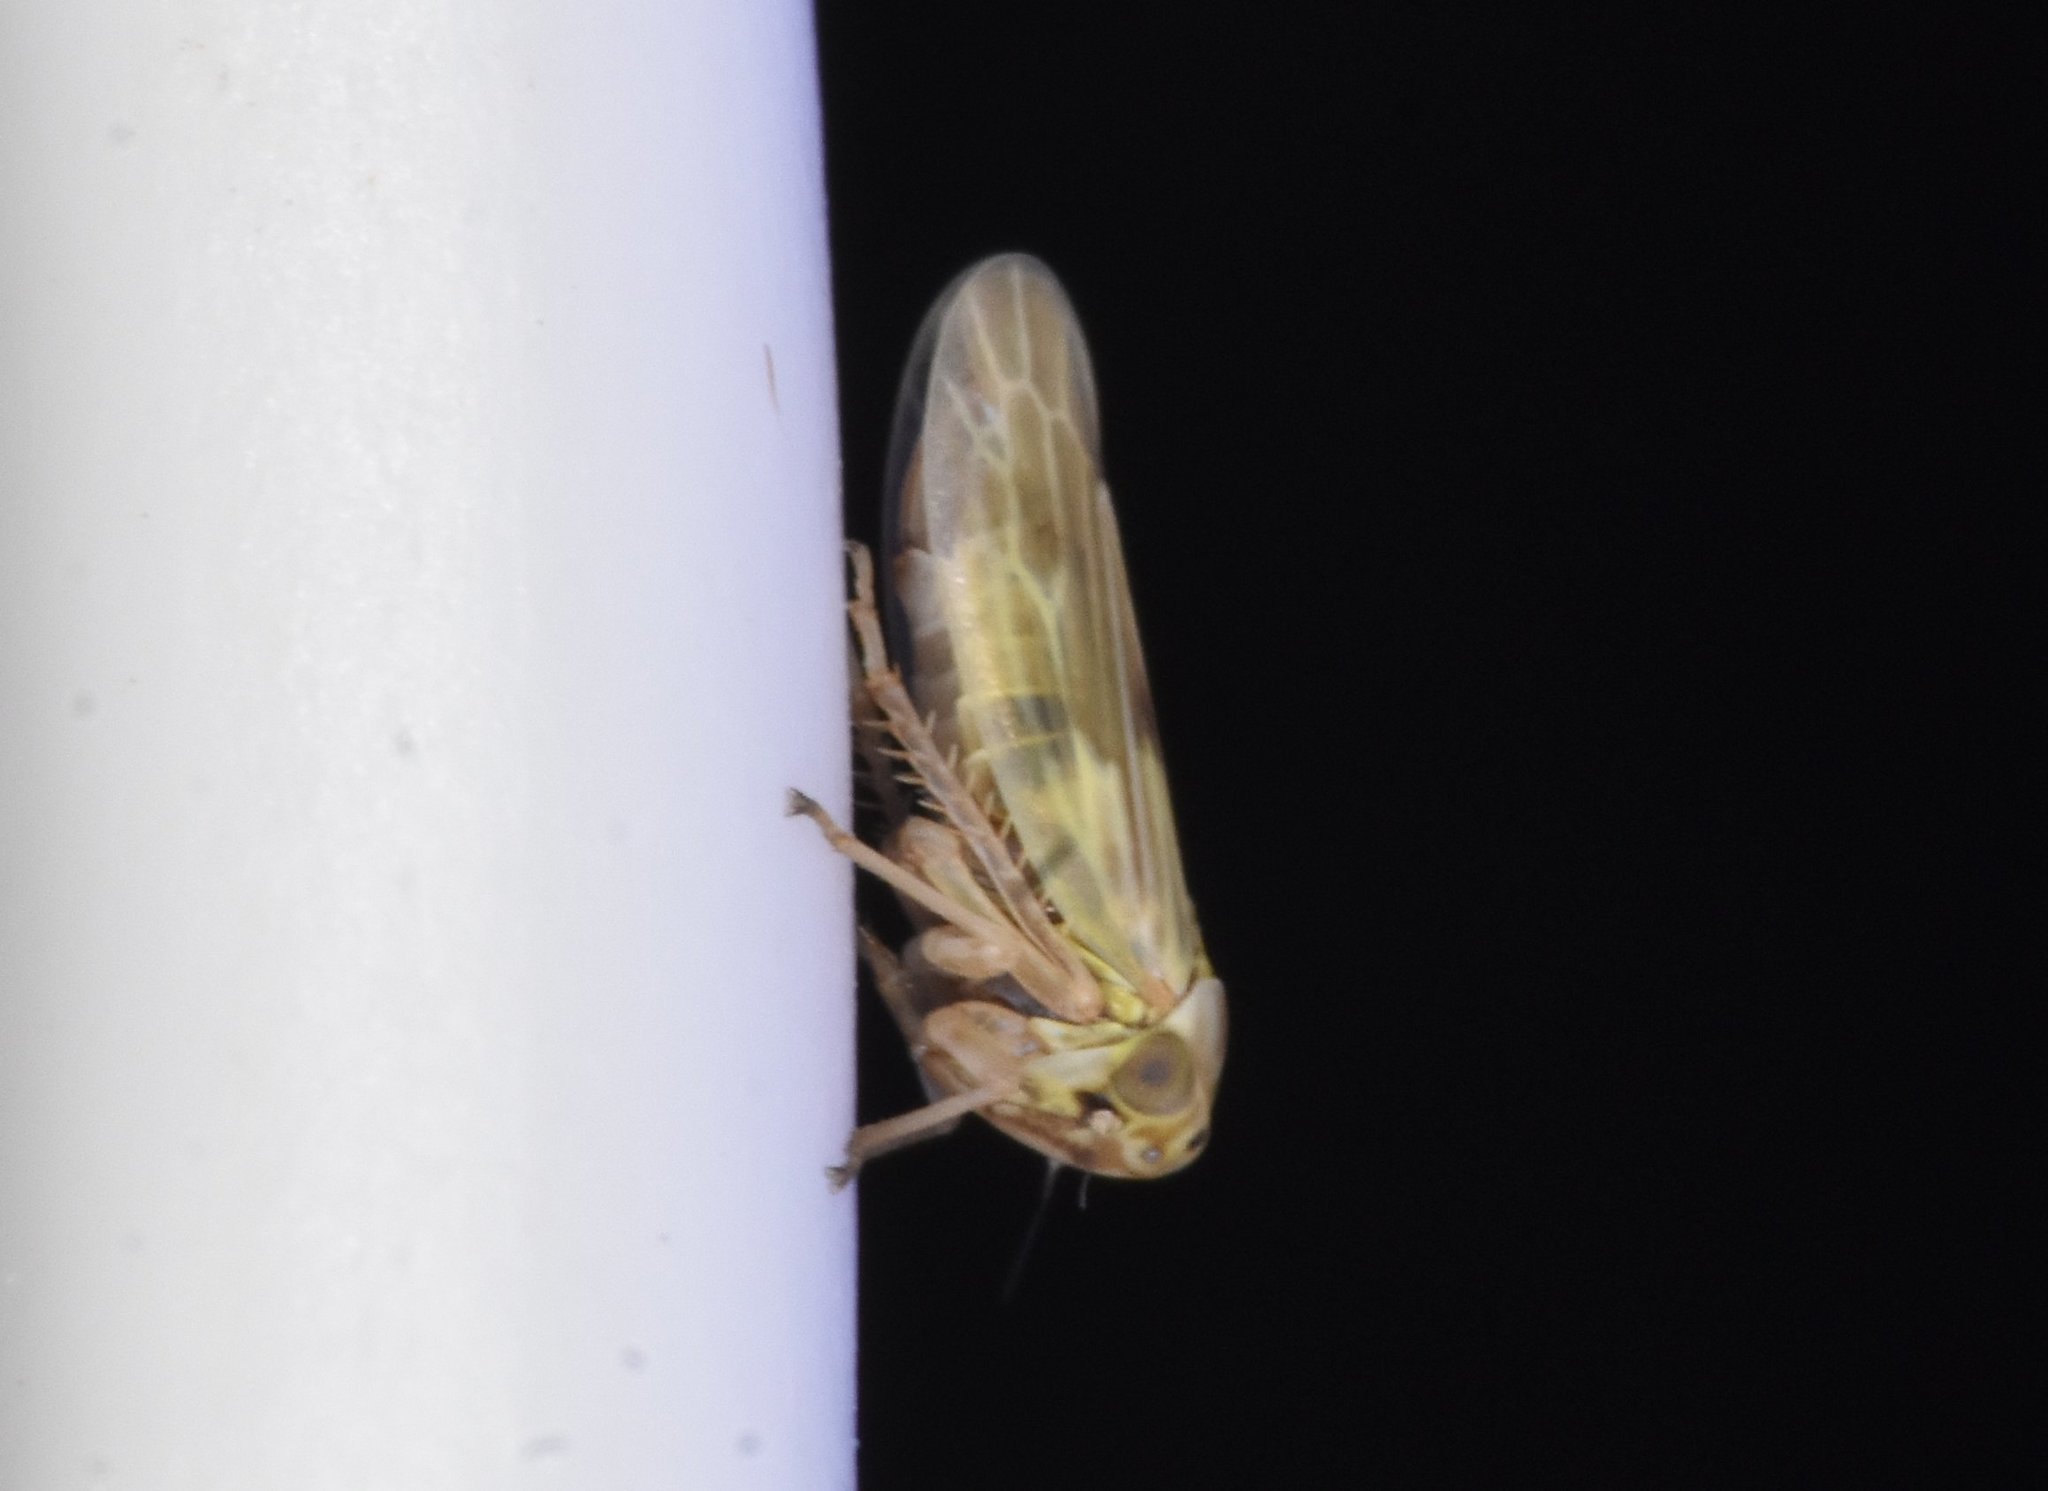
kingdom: Animalia
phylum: Arthropoda
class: Insecta
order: Hemiptera
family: Cicadellidae
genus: Agallia
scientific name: Agallia albidula
